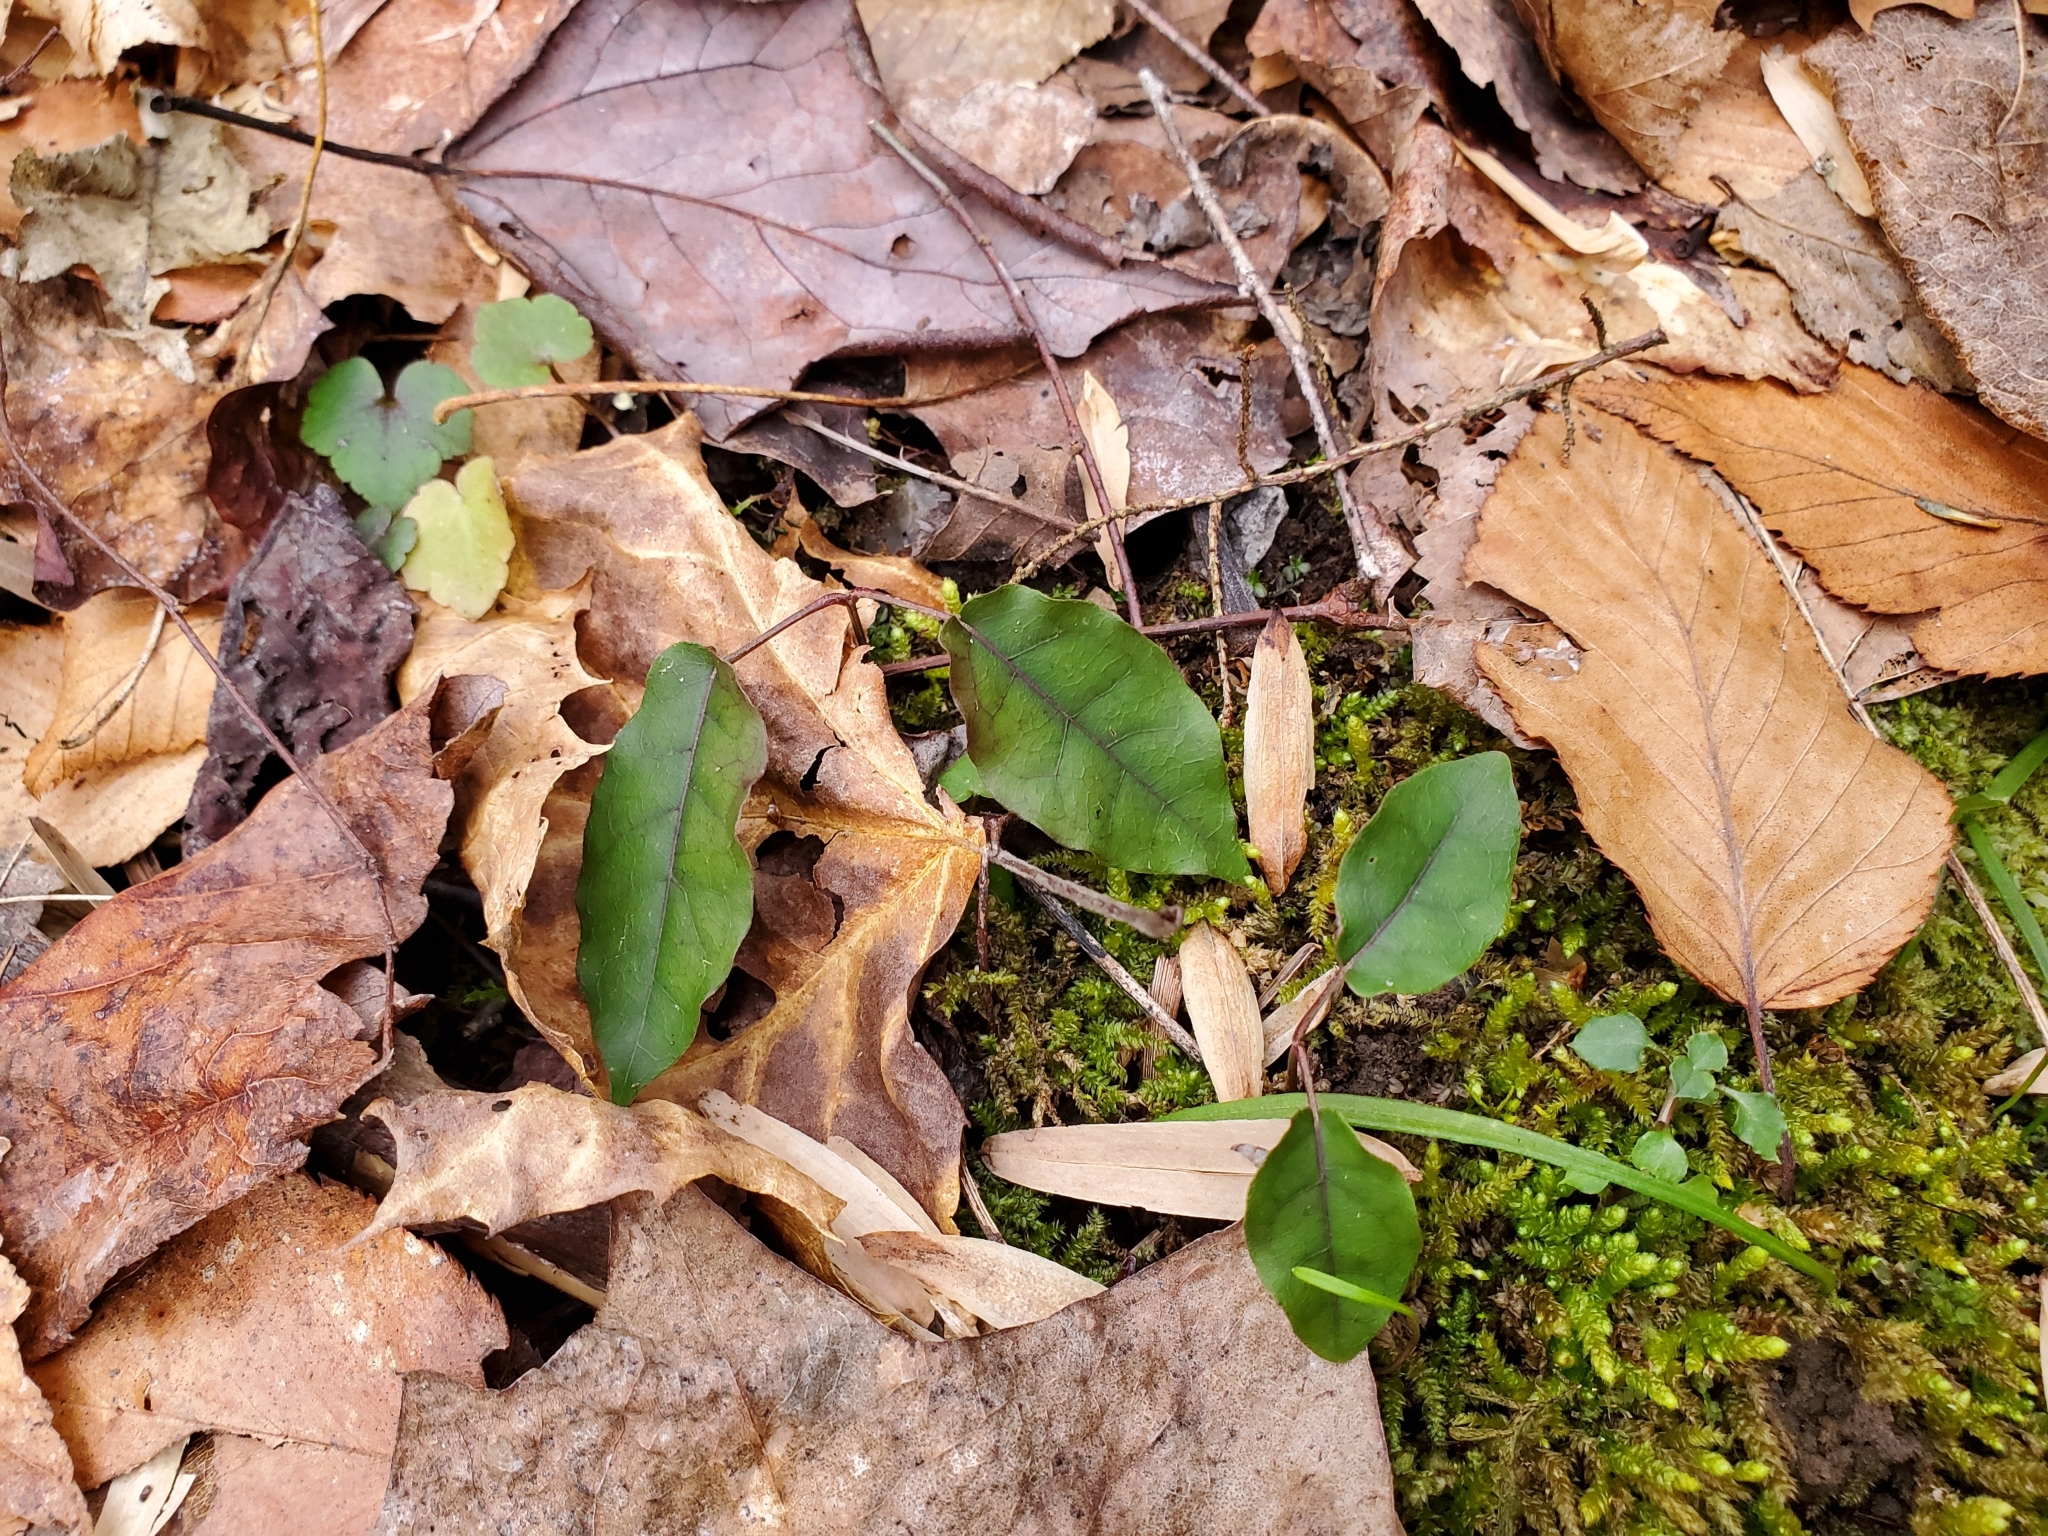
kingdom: Plantae
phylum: Tracheophyta
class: Magnoliopsida
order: Lamiales
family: Bignoniaceae
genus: Bignonia
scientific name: Bignonia capreolata
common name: Crossvine
